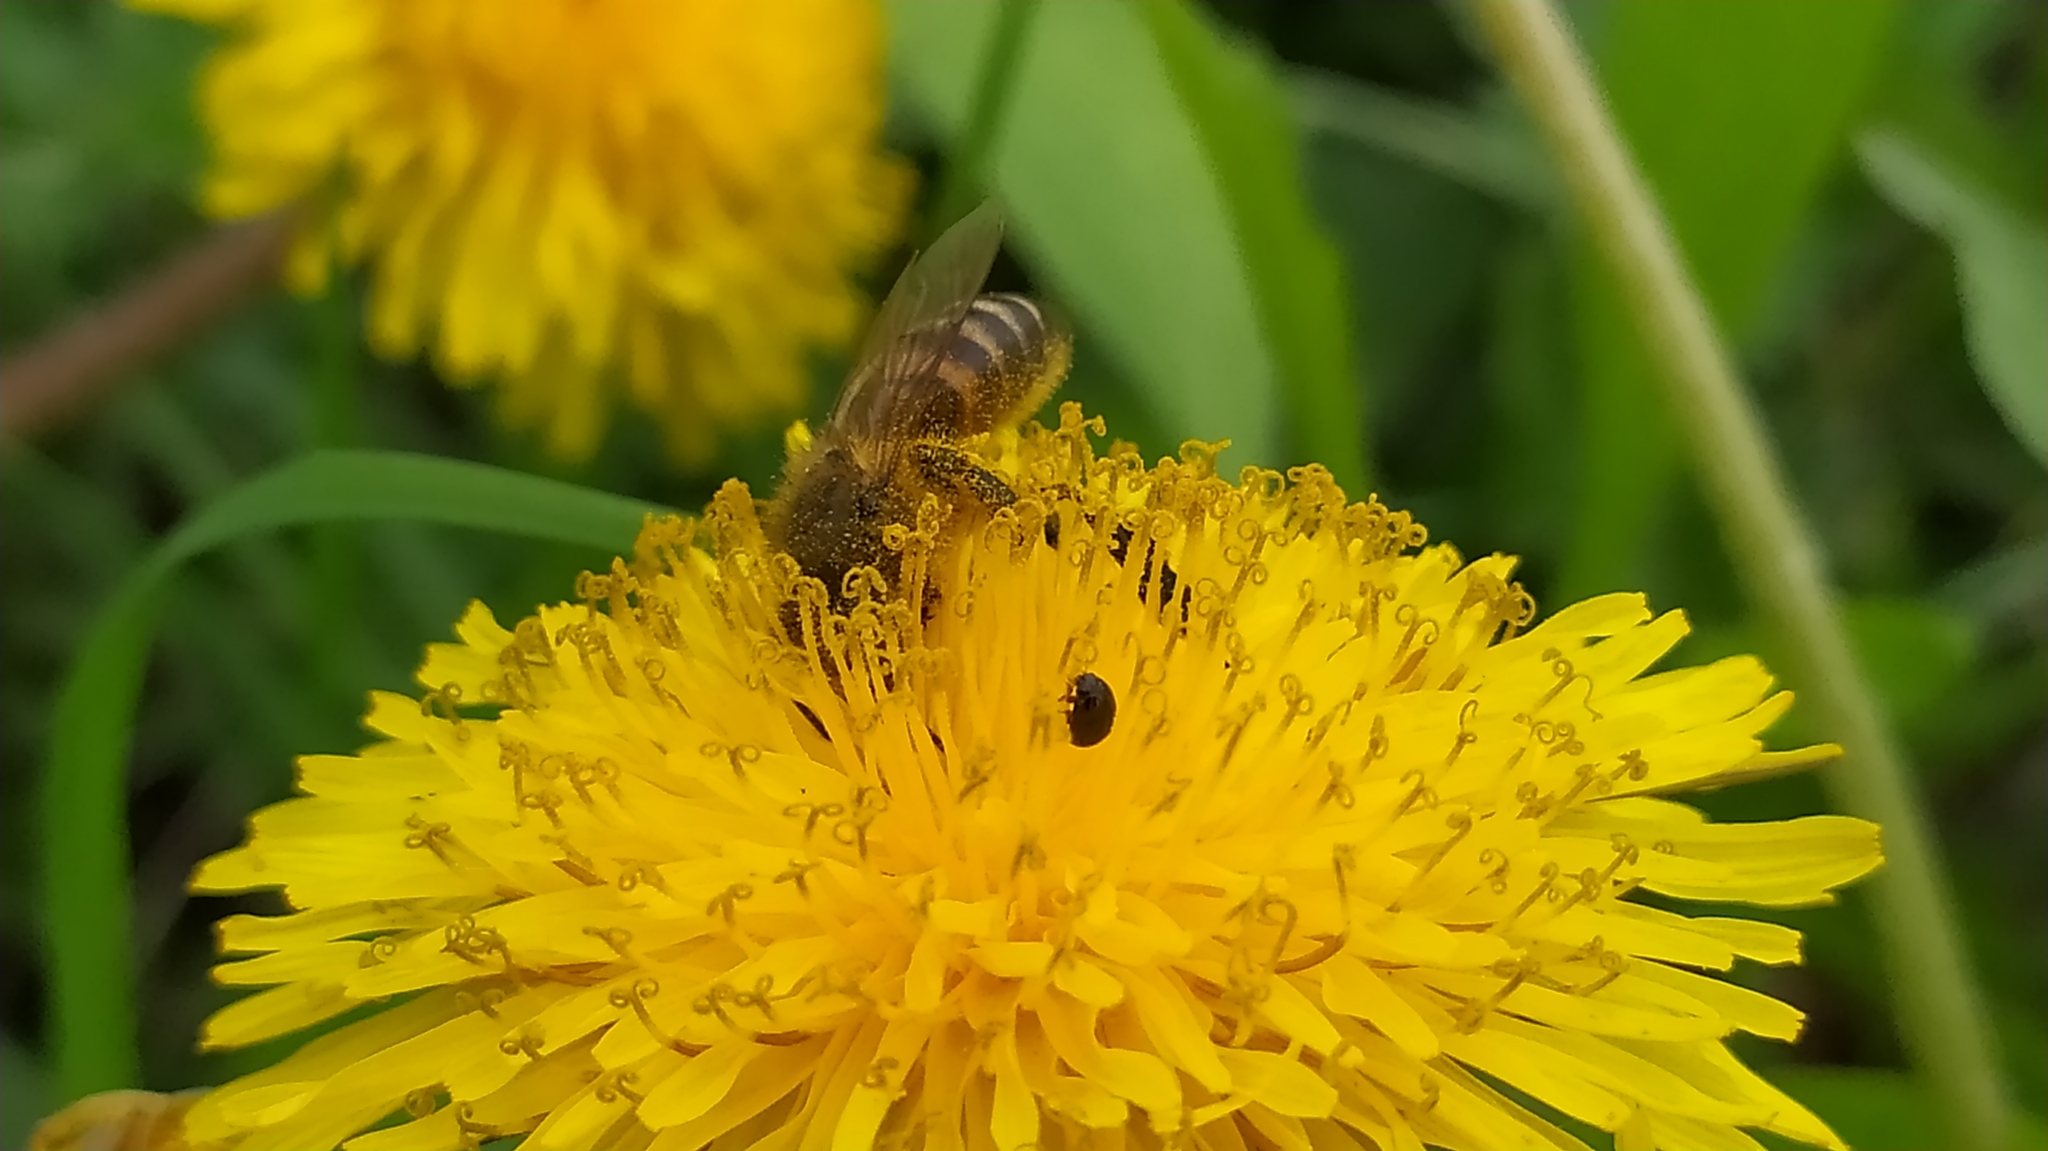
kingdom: Animalia
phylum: Arthropoda
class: Insecta
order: Hymenoptera
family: Apidae
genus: Apis
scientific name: Apis mellifera
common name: Honey bee
